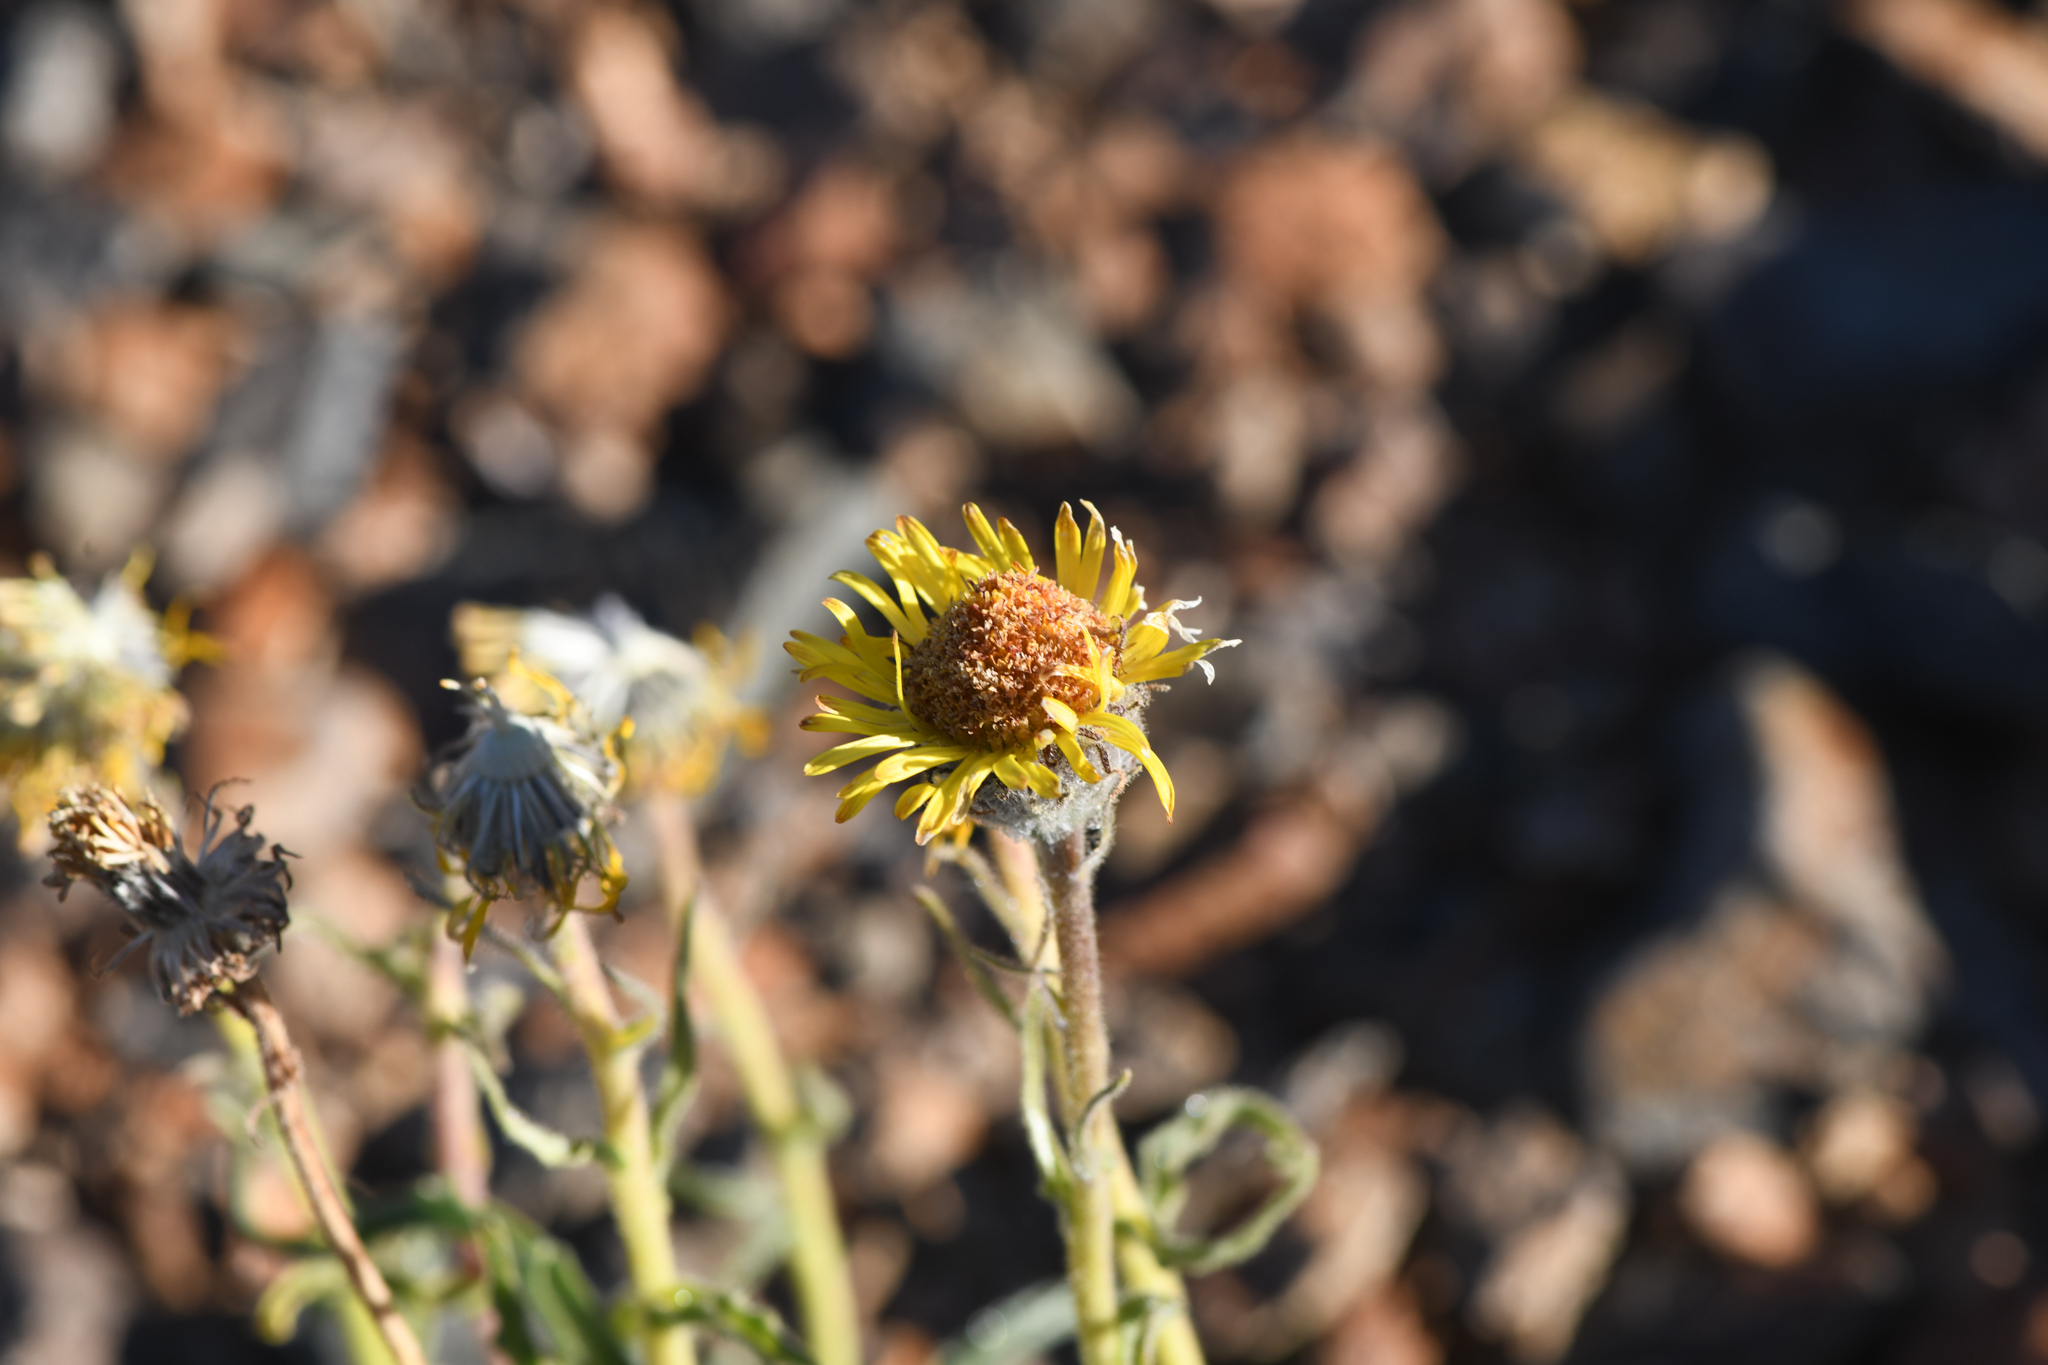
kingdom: Plantae
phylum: Tracheophyta
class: Magnoliopsida
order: Asterales
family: Asteraceae
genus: Hulsea
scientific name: Hulsea algida
